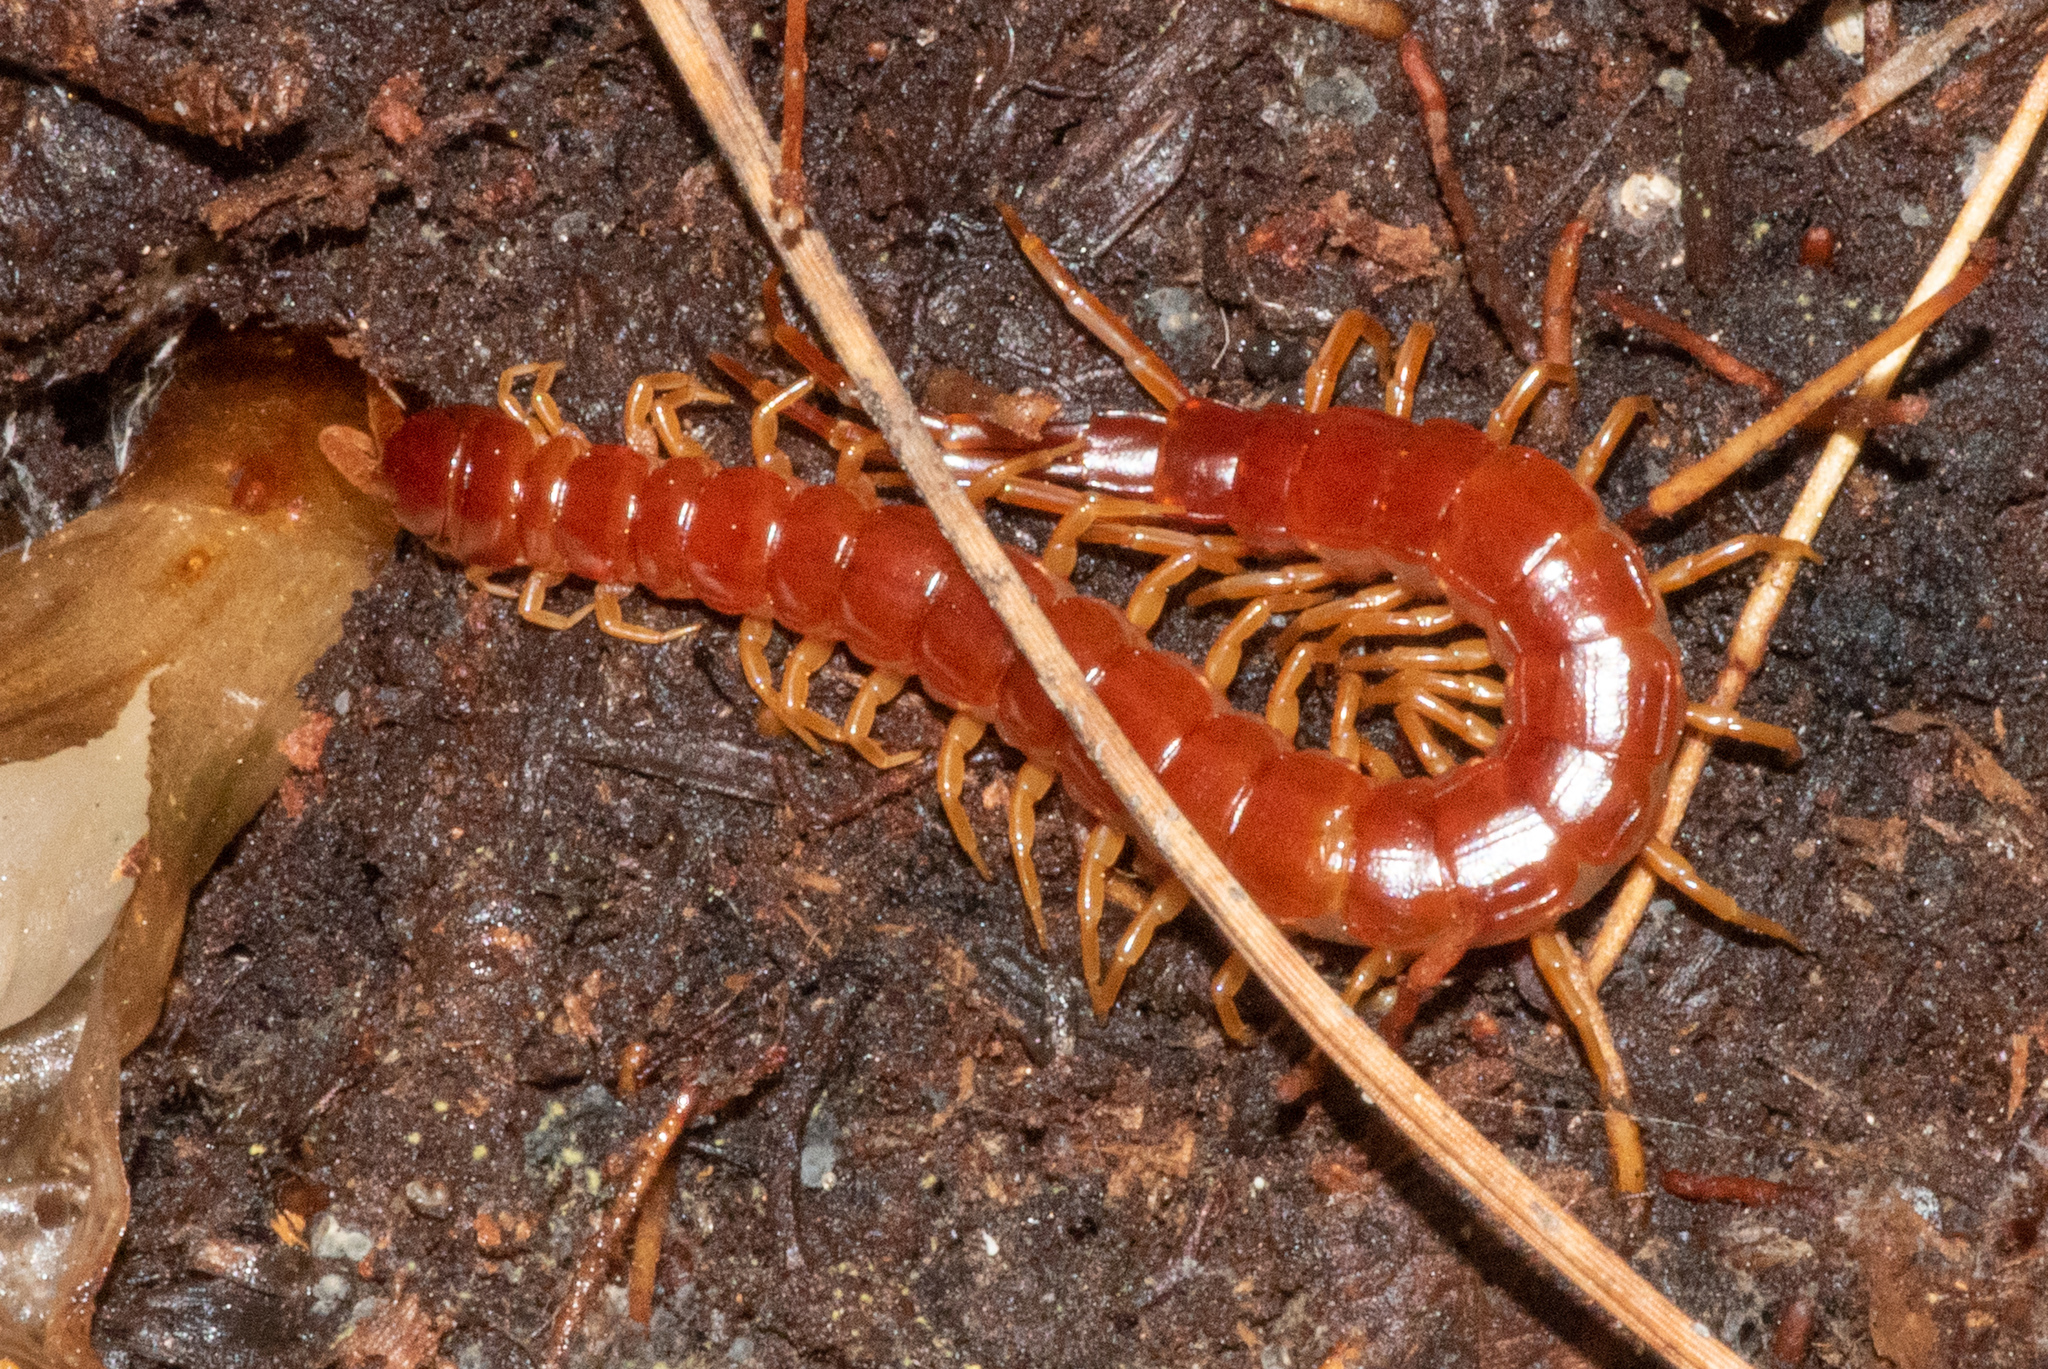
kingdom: Animalia
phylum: Arthropoda
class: Chilopoda
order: Scolopendromorpha
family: Scolopocryptopidae
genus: Scolopocryptops
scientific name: Scolopocryptops spinicaudus
